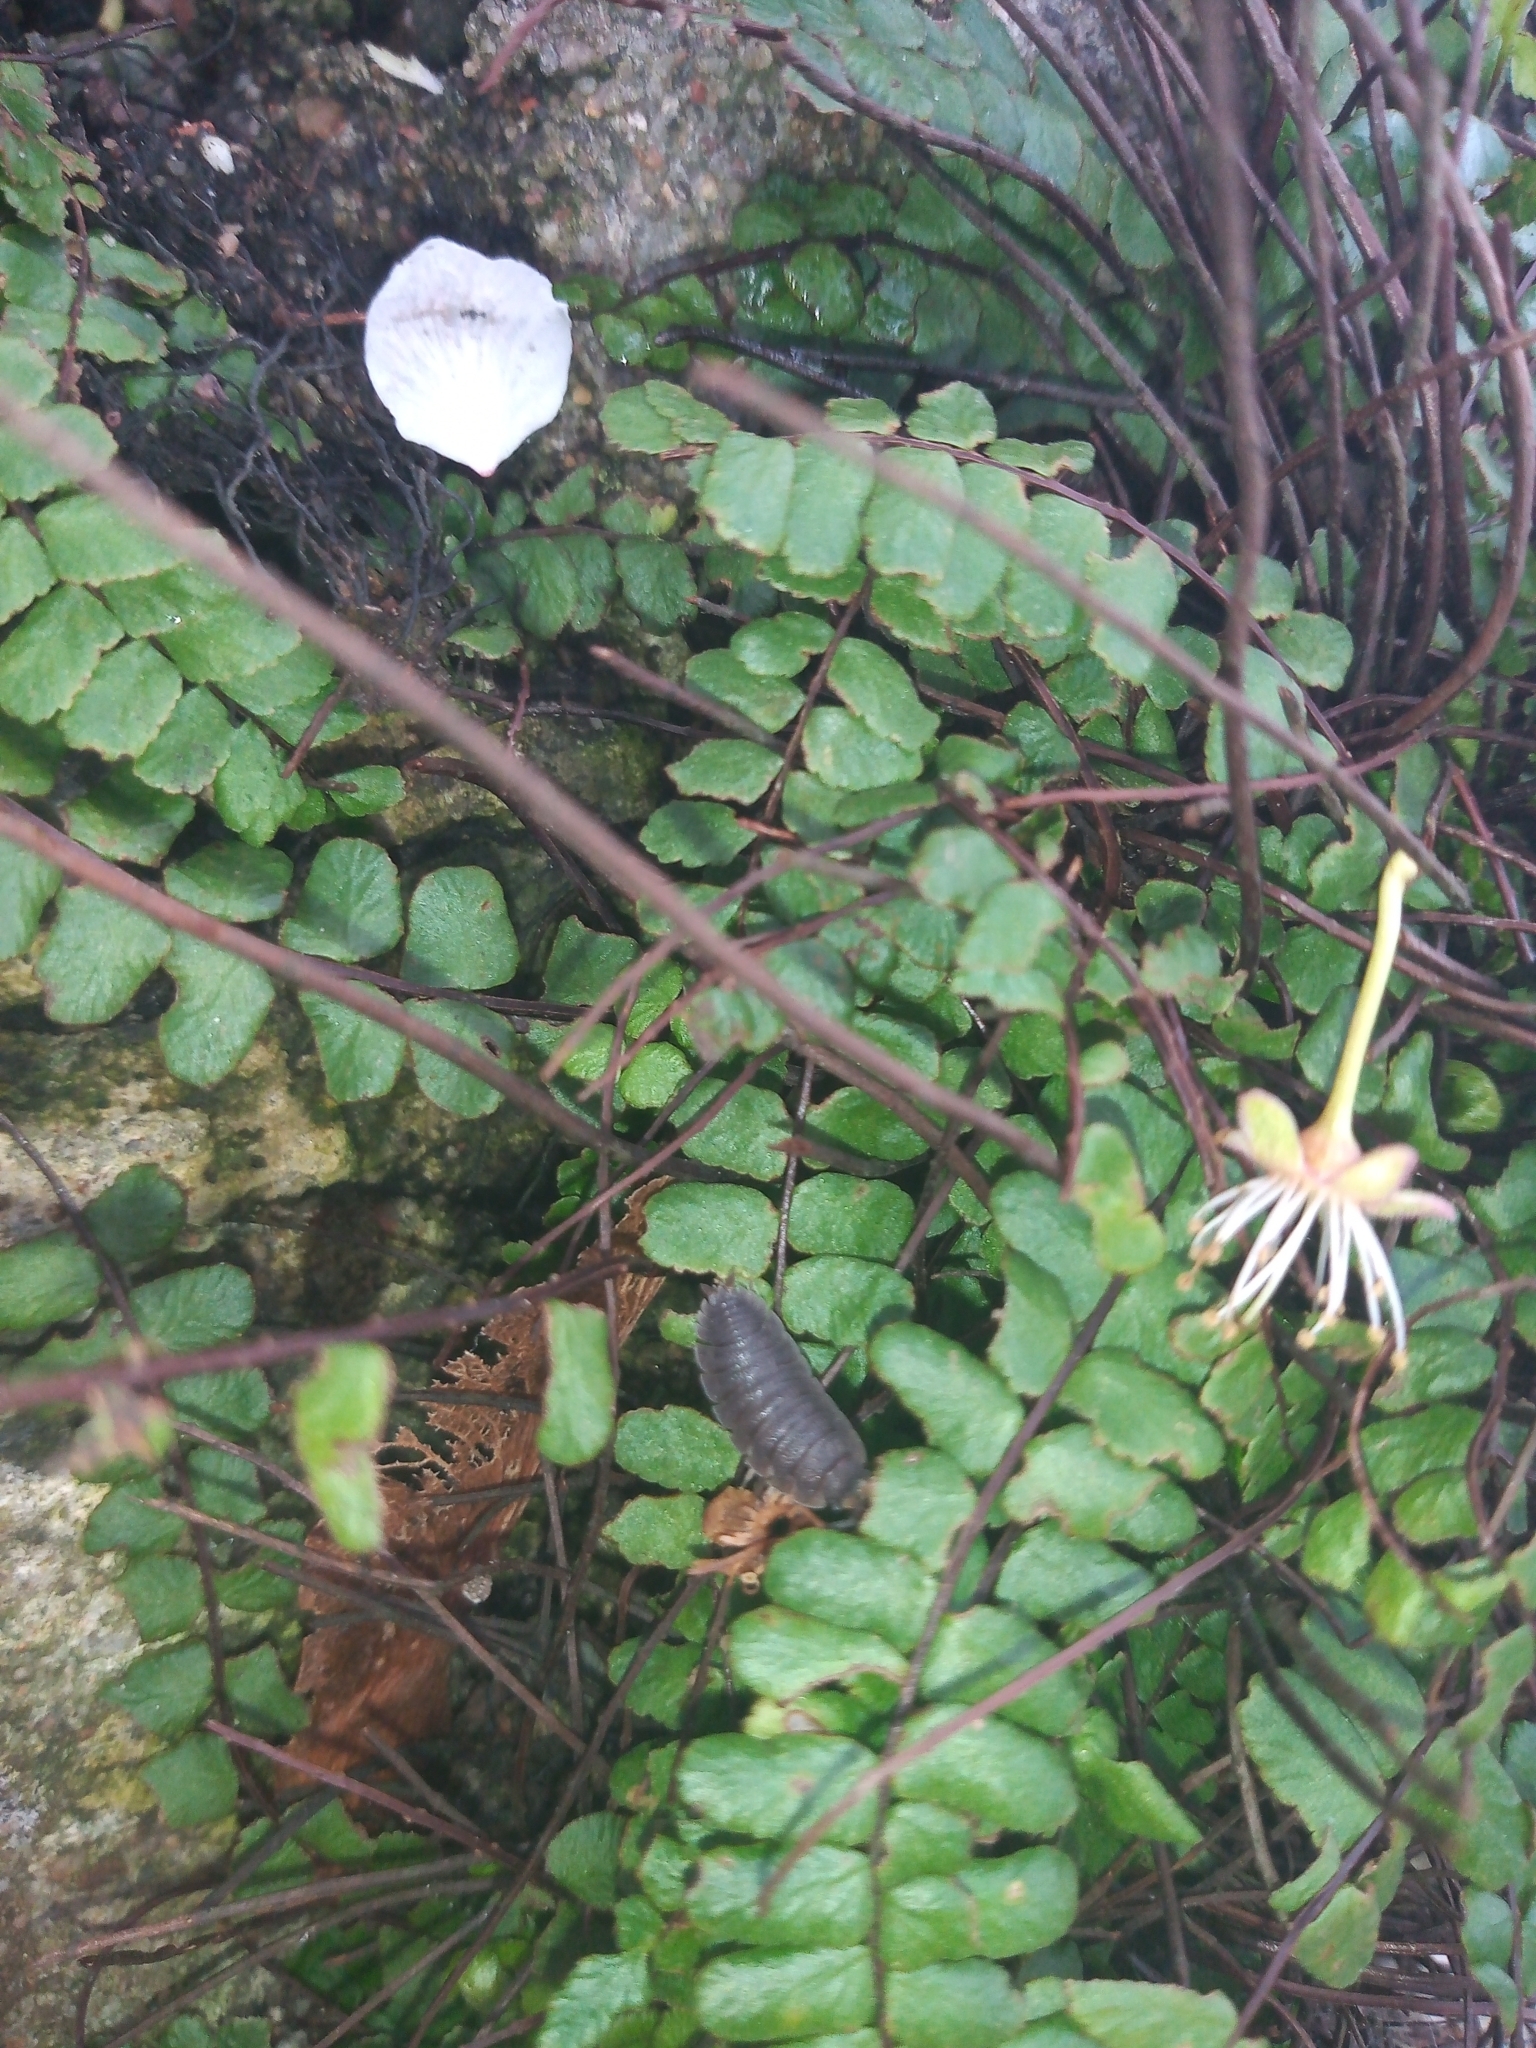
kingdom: Plantae
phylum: Tracheophyta
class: Polypodiopsida
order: Polypodiales
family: Aspleniaceae
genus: Asplenium
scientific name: Asplenium trichomanes
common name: Maidenhair spleenwort
